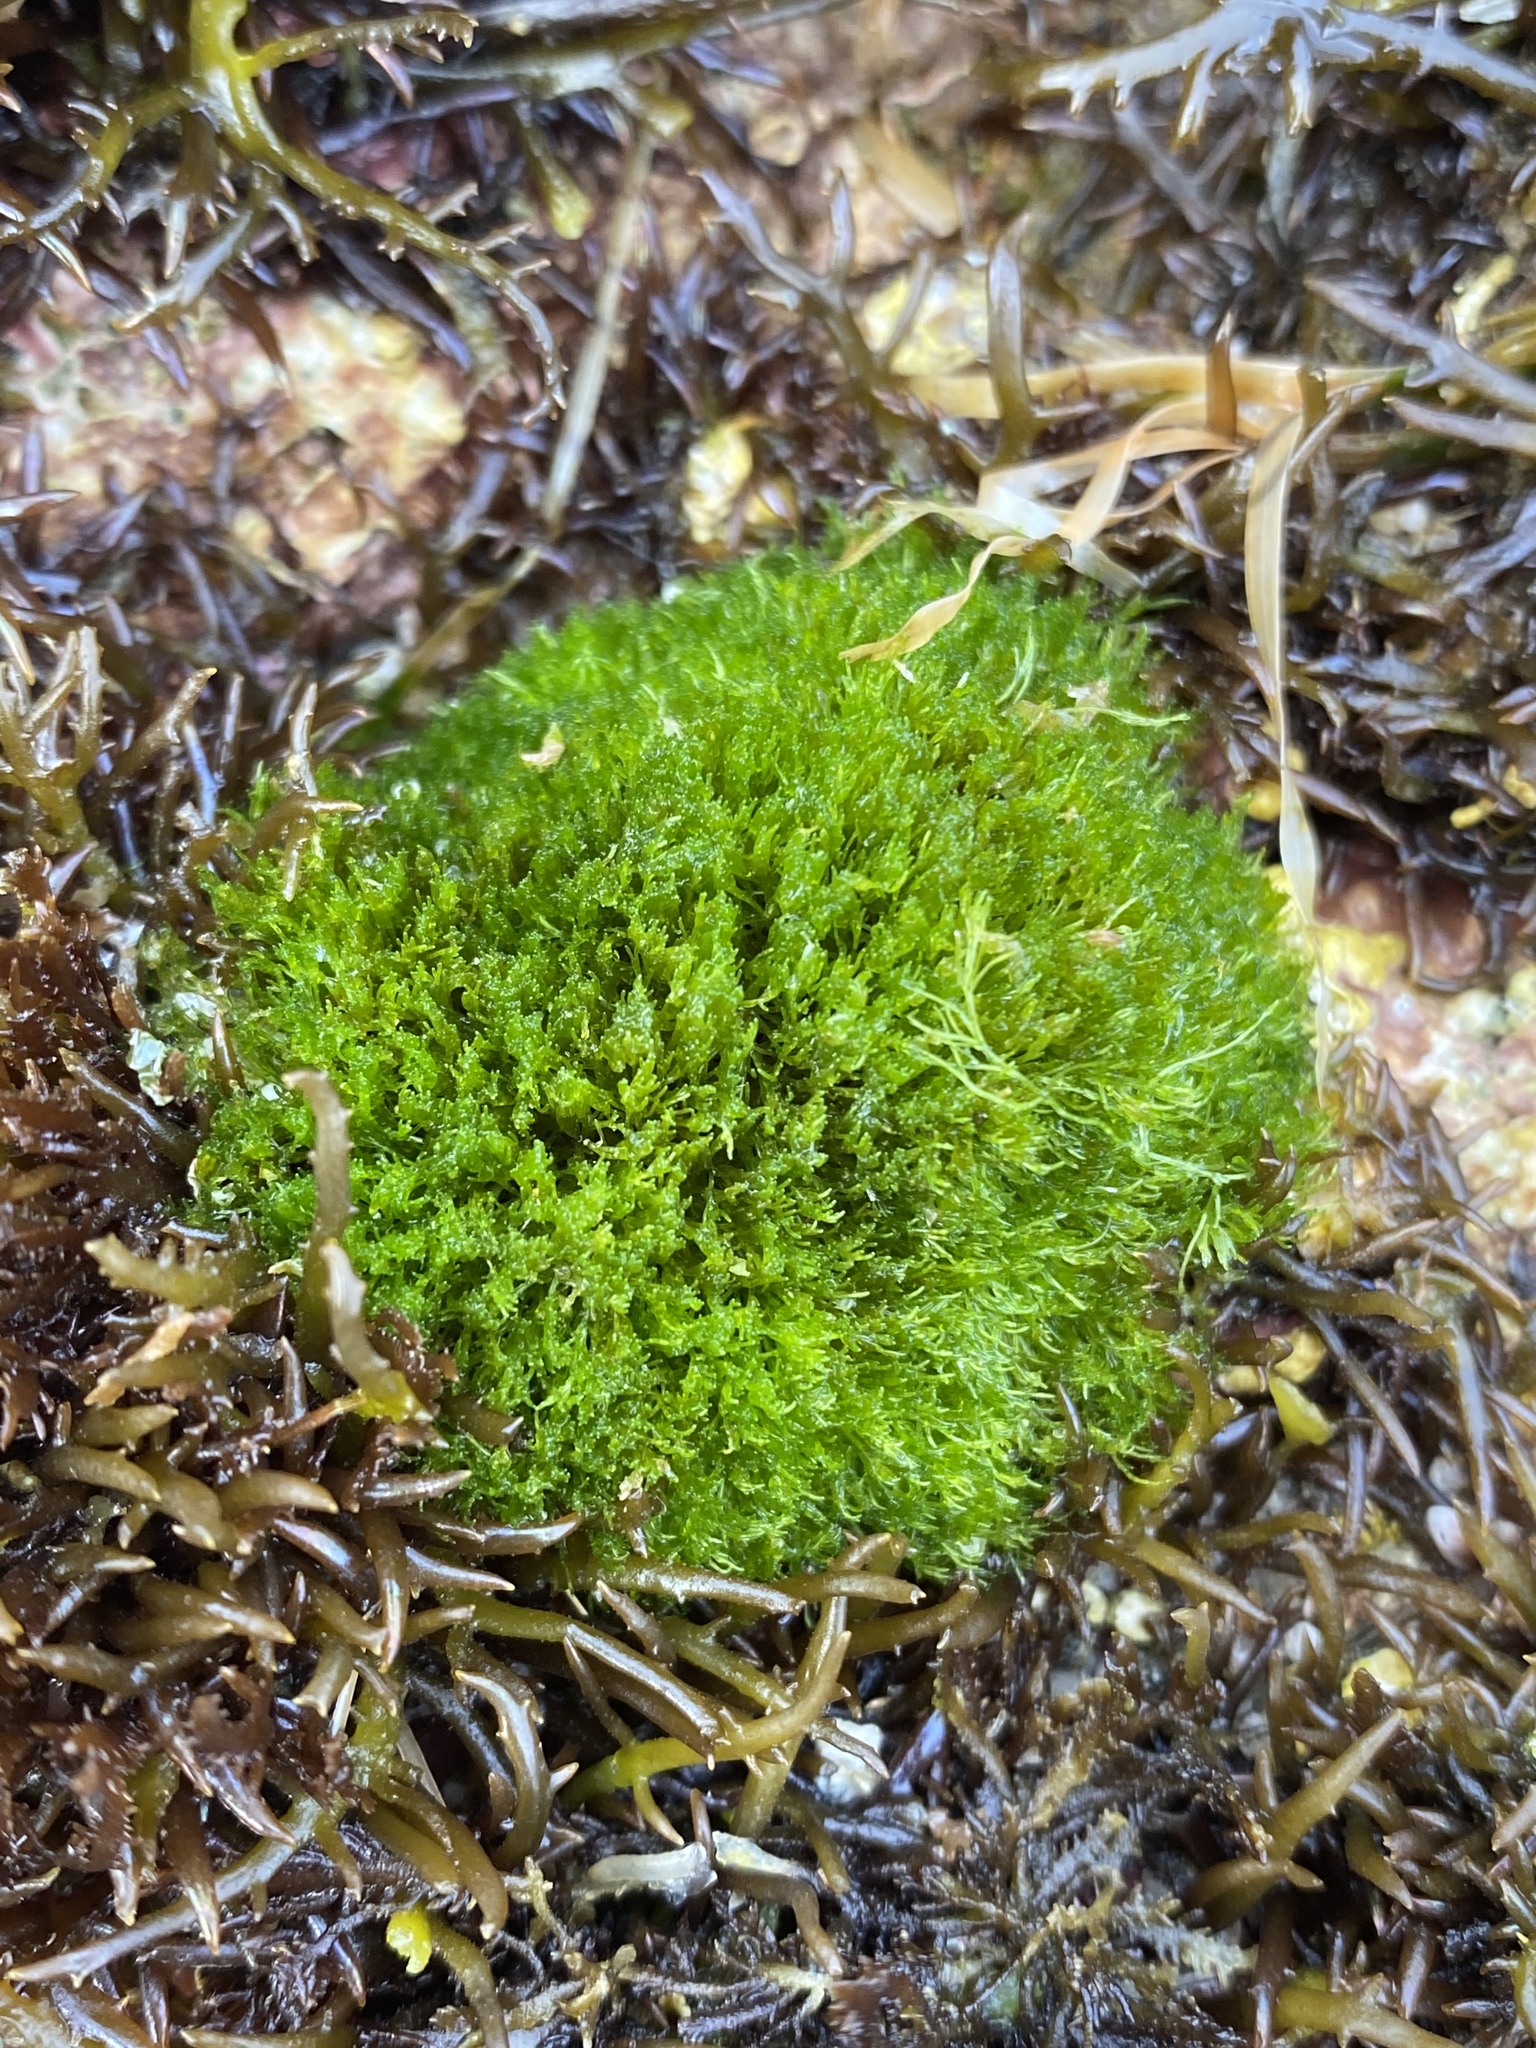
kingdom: Plantae
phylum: Chlorophyta
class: Ulvophyceae
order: Cladophorales
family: Cladophoraceae
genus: Cladophora
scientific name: Cladophora columbiana
